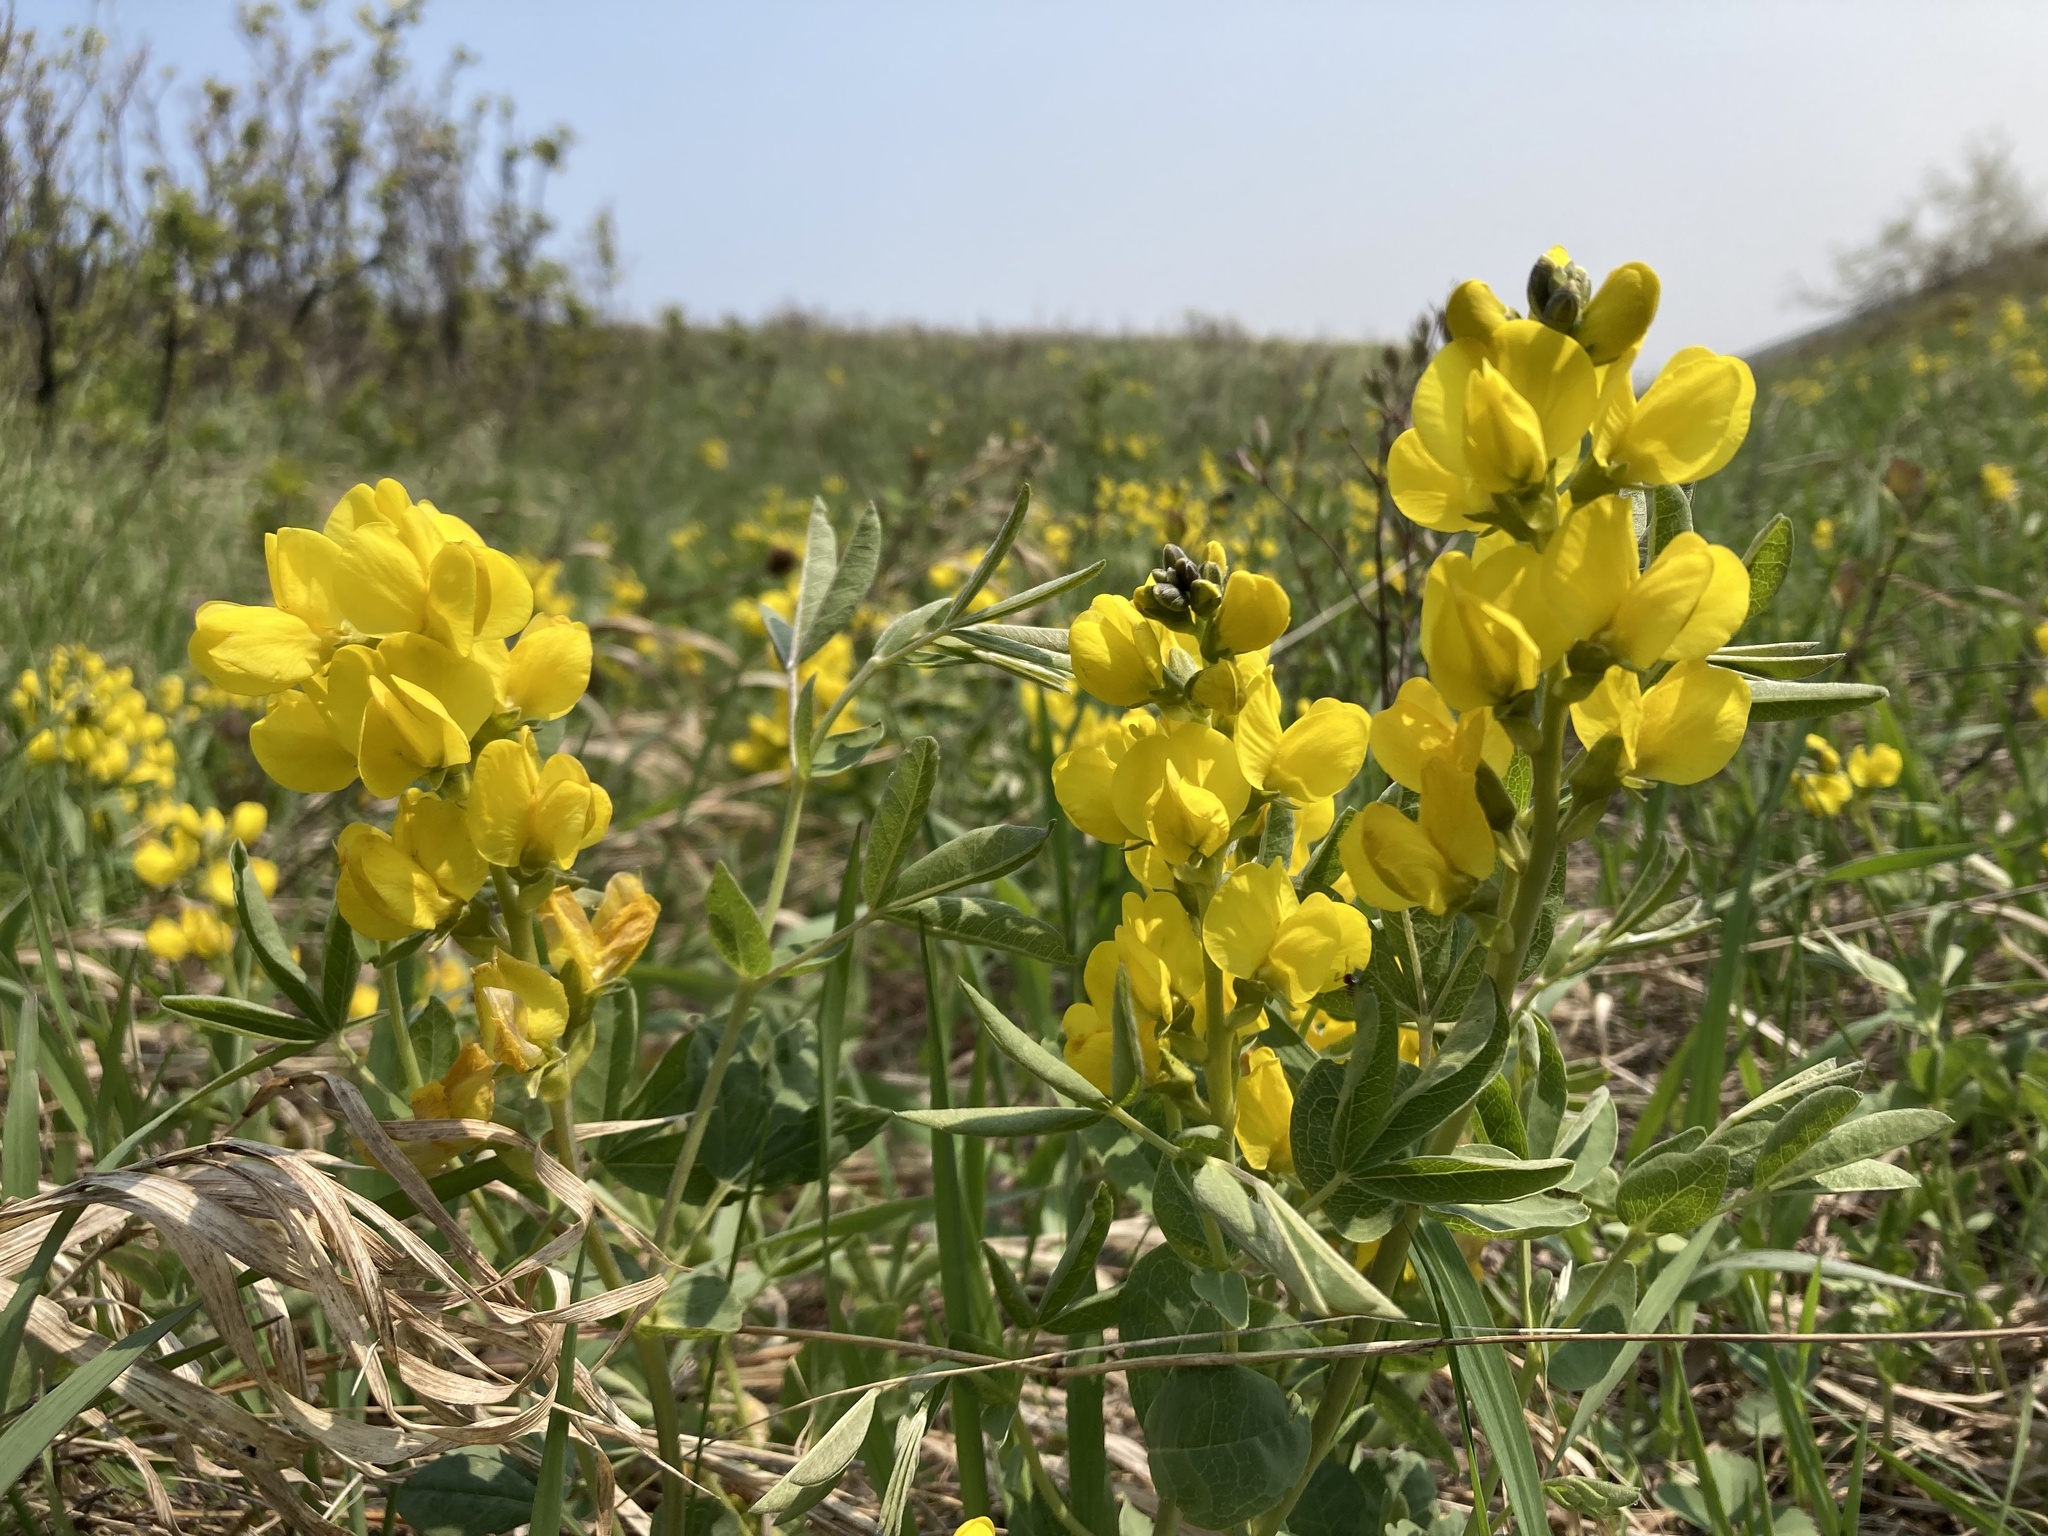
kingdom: Plantae
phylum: Tracheophyta
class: Magnoliopsida
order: Fabales
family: Fabaceae
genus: Thermopsis
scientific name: Thermopsis rhombifolia
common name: Circle-pod-pea
